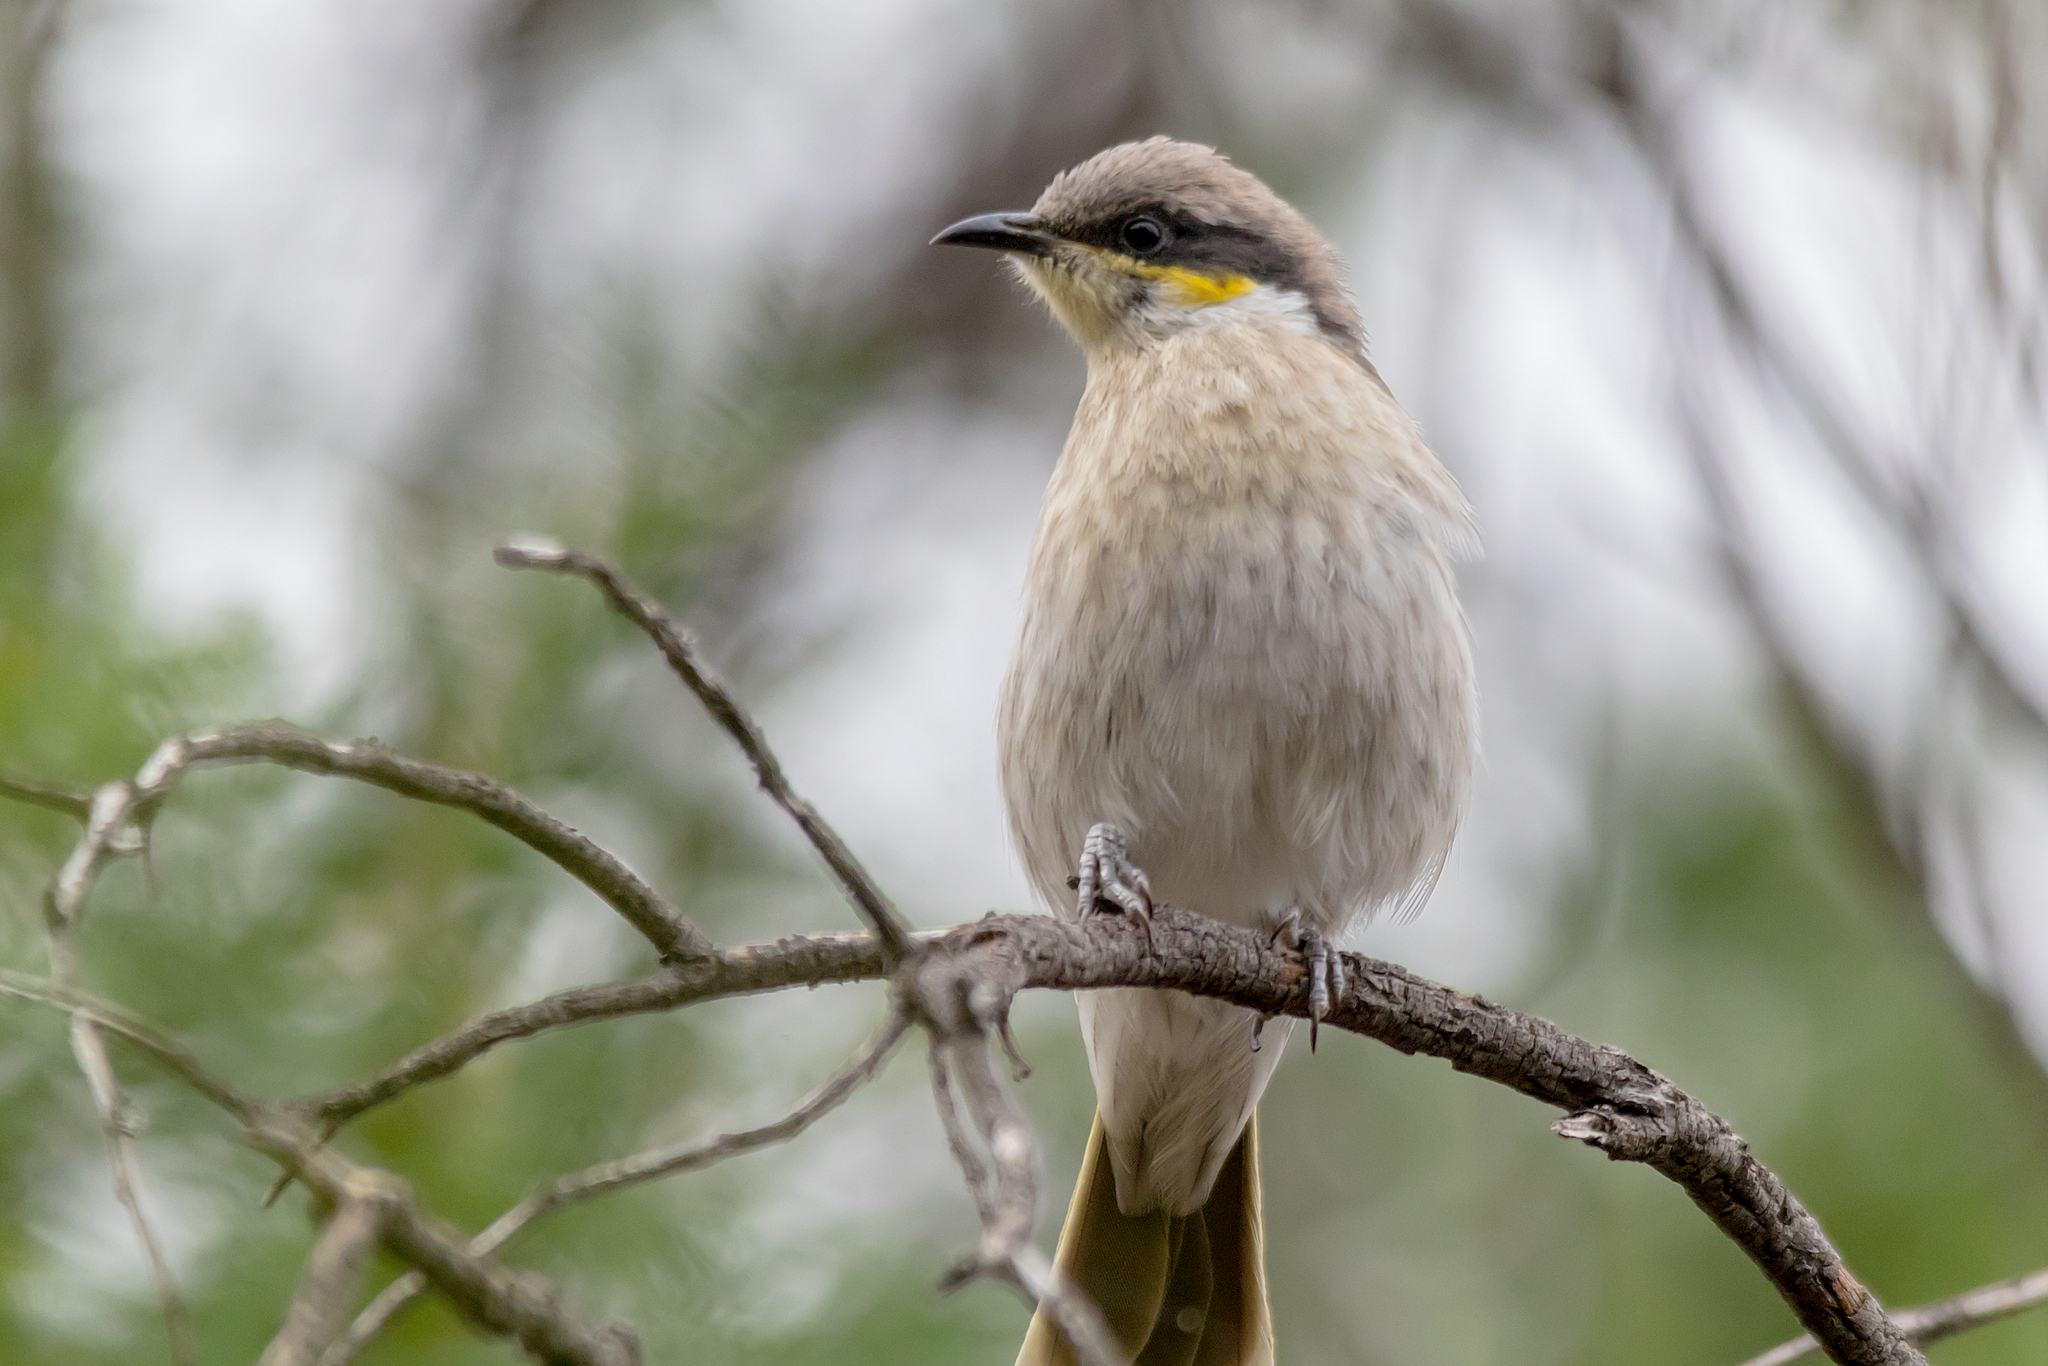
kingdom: Animalia
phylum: Chordata
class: Aves
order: Passeriformes
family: Meliphagidae
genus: Gavicalis
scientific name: Gavicalis virescens
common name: Singing honeyeater
